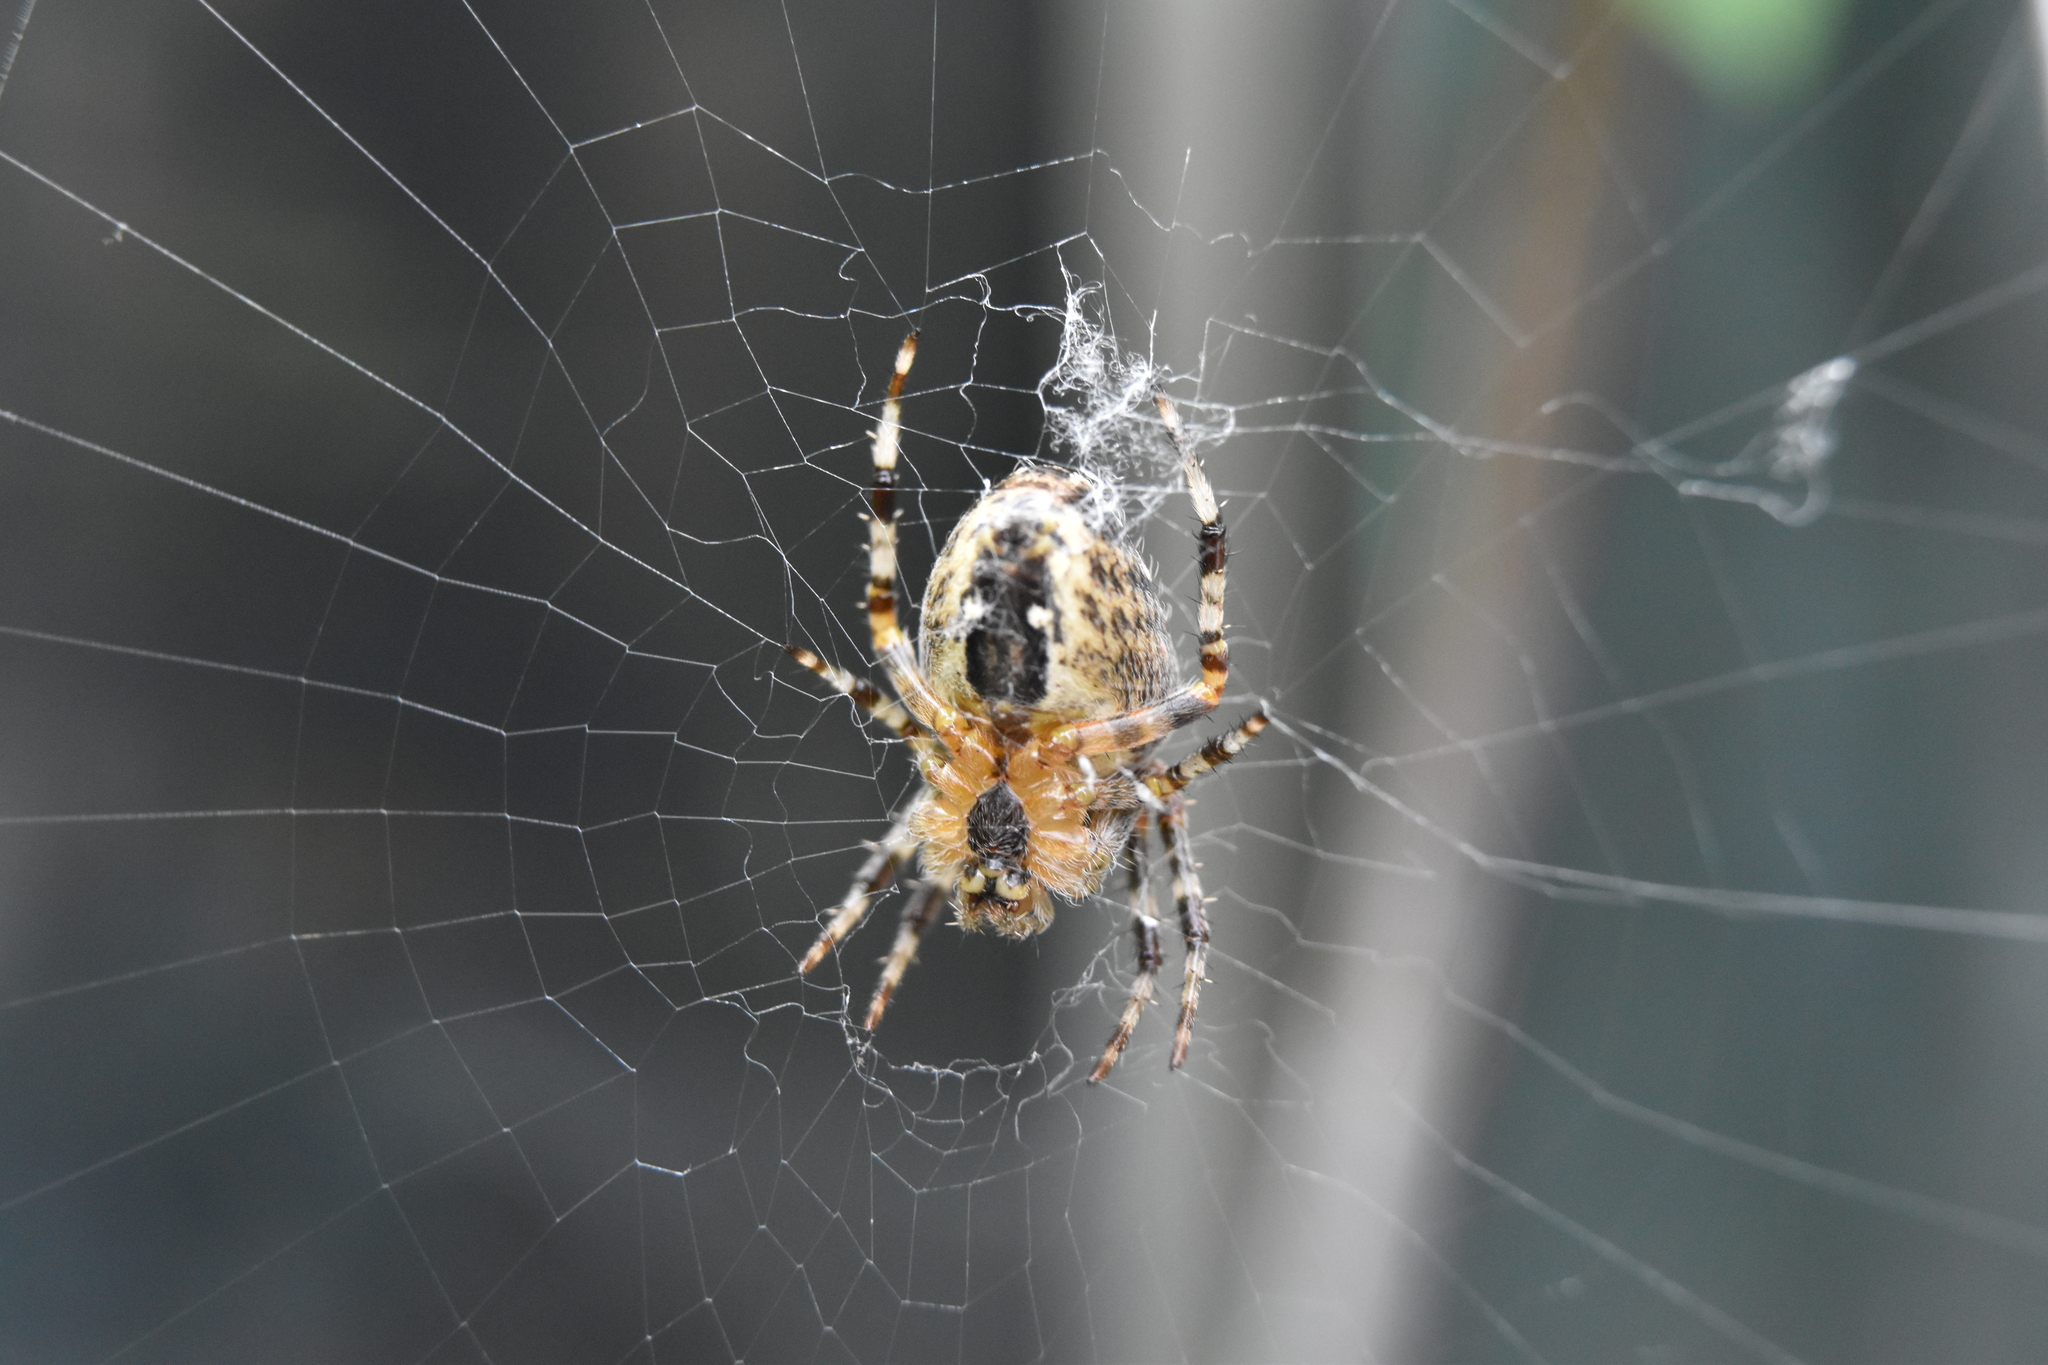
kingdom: Animalia
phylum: Arthropoda
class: Arachnida
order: Araneae
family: Araneidae
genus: Araneus
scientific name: Araneus diadematus
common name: Cross orbweaver
